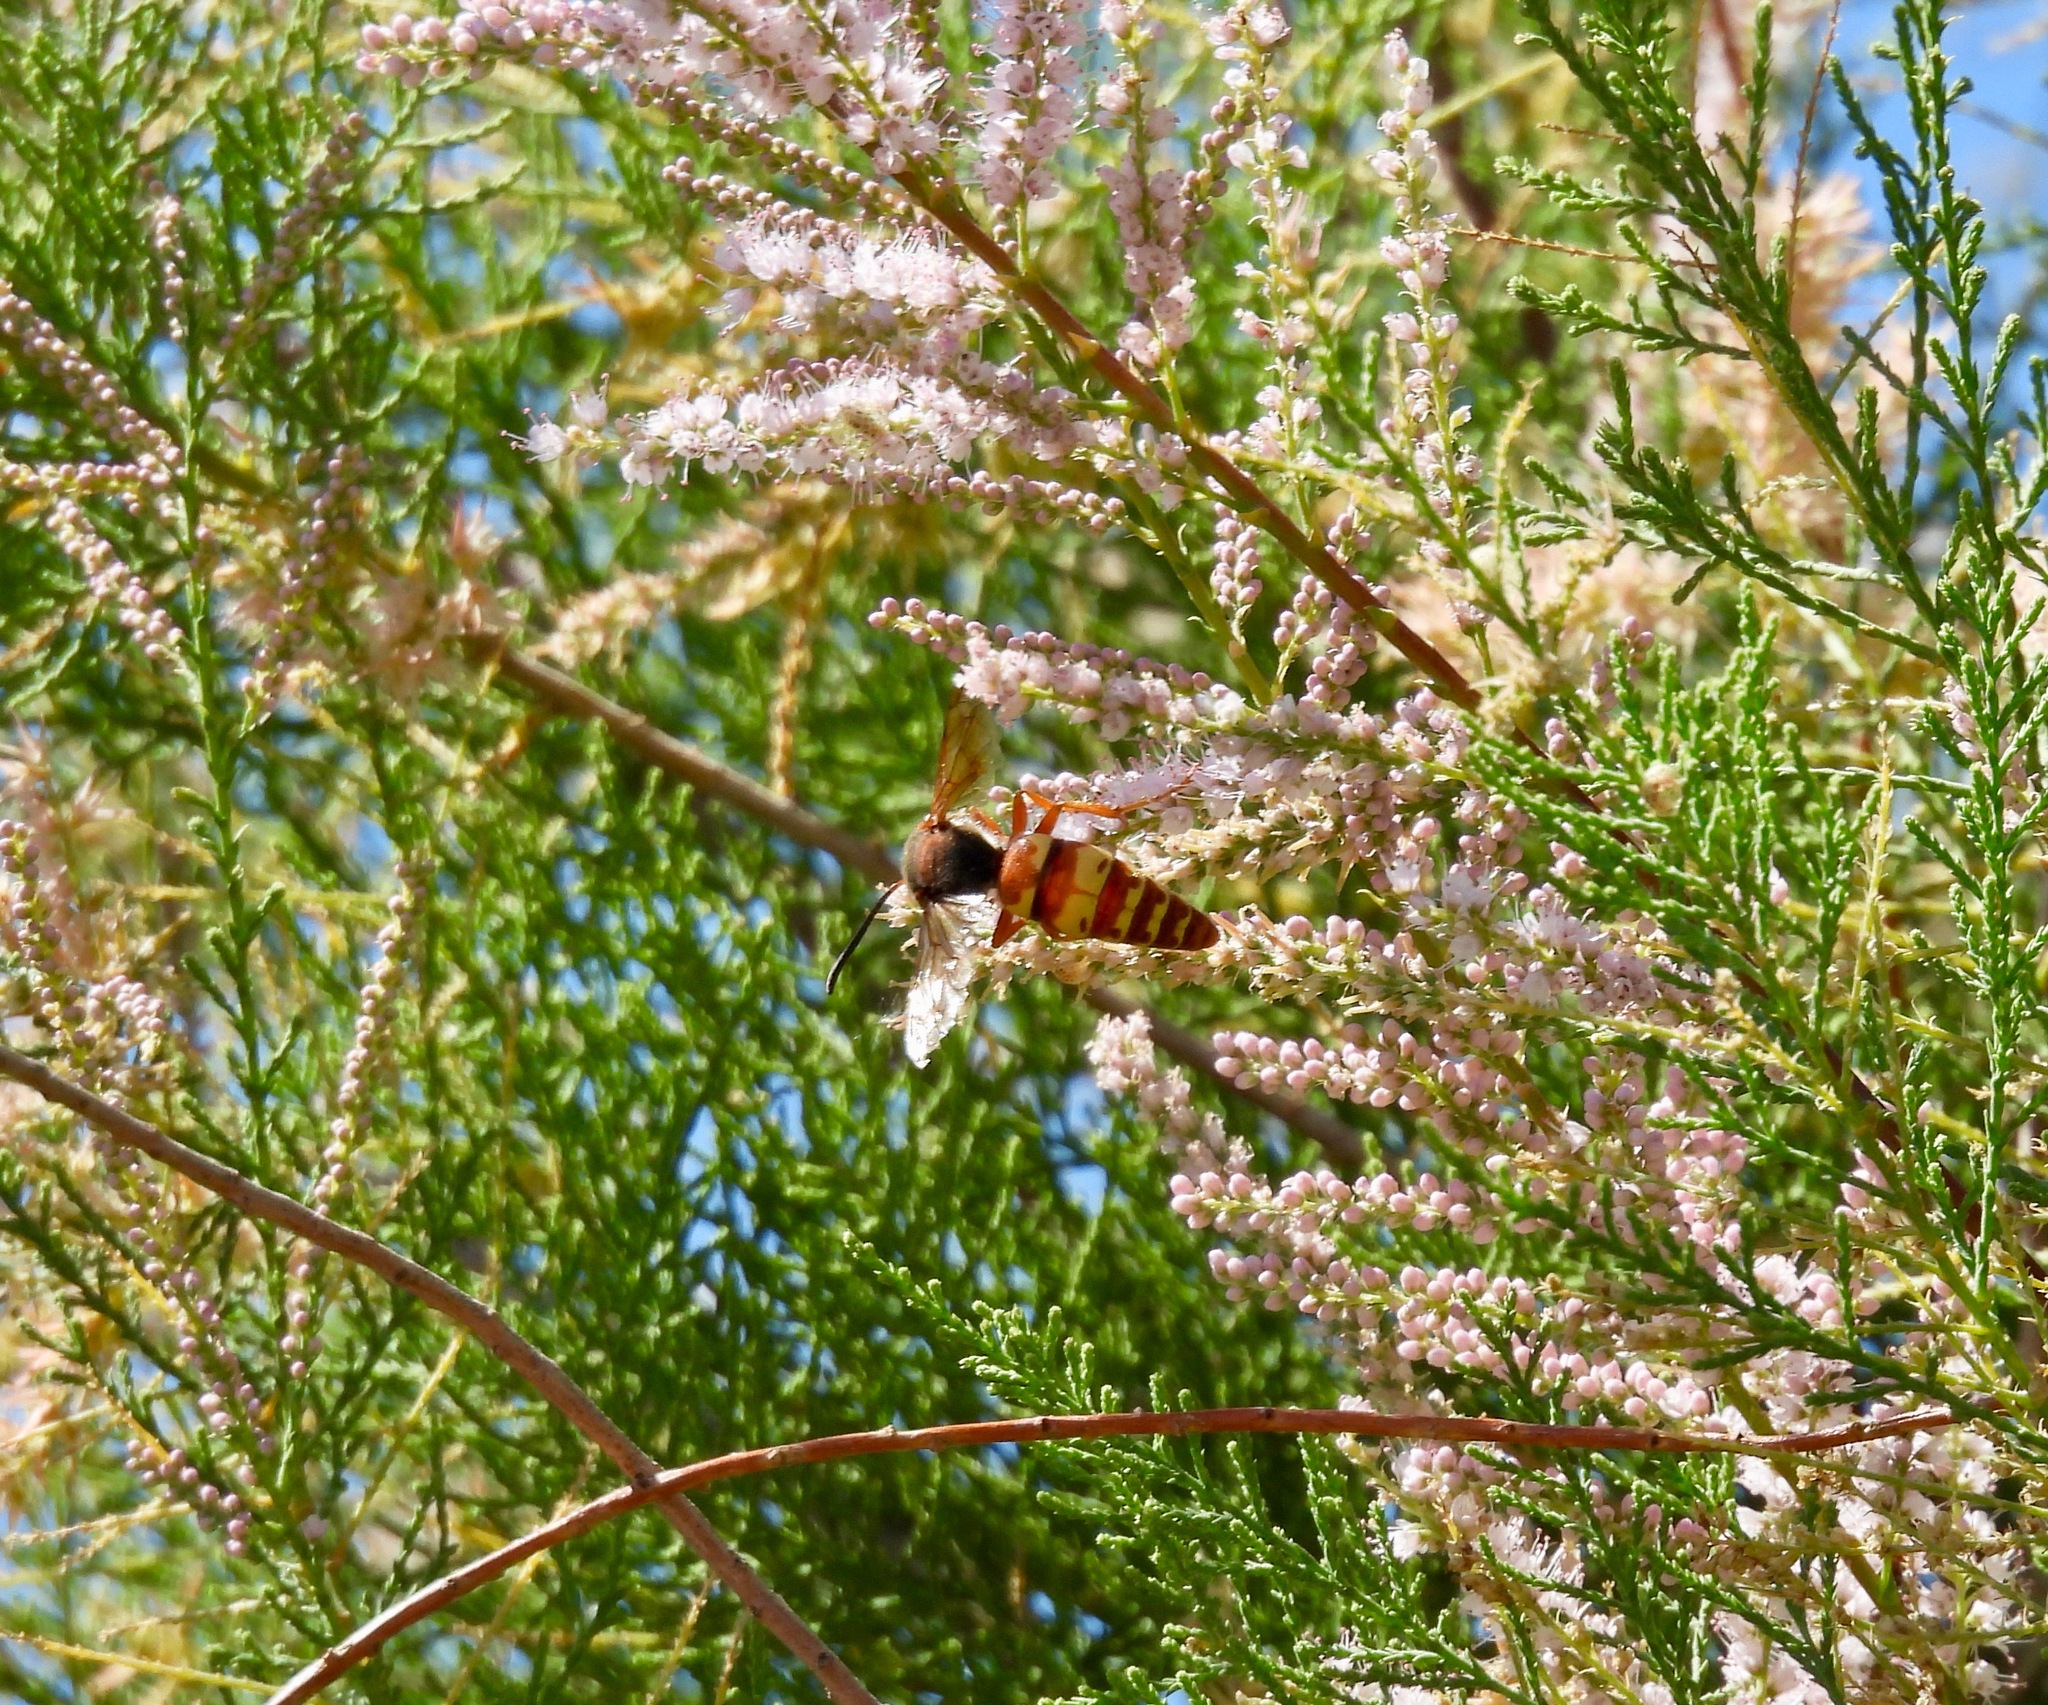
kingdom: Animalia
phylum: Arthropoda
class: Insecta
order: Hymenoptera
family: Crabronidae
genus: Sphecius
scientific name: Sphecius grandis
